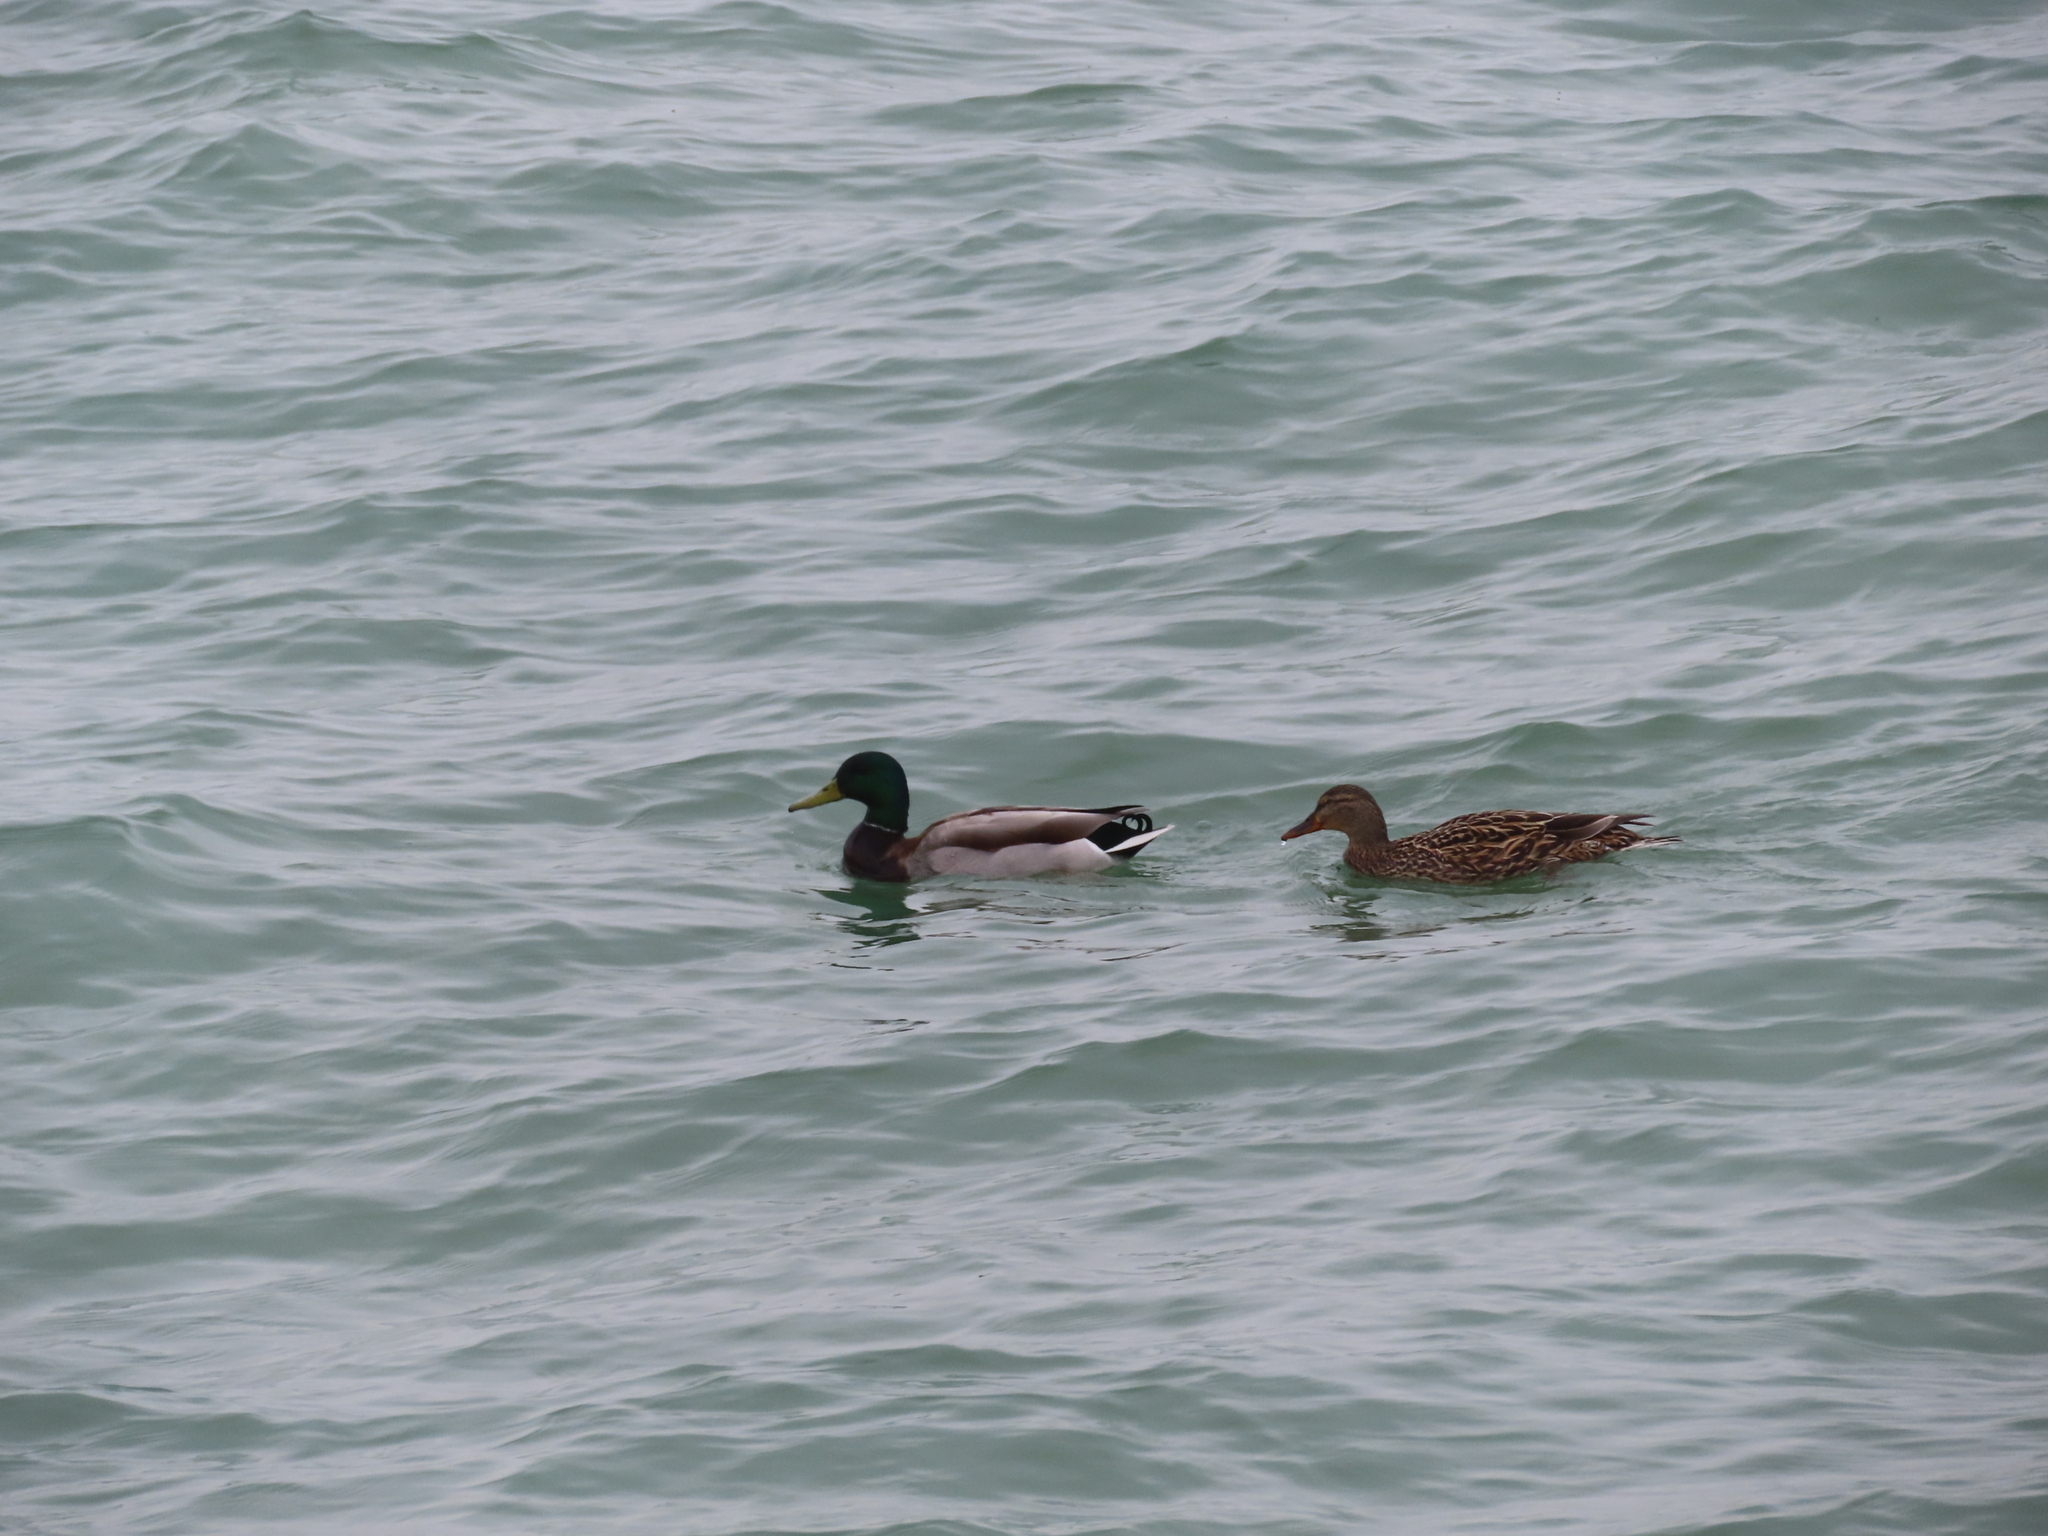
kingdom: Animalia
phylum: Chordata
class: Aves
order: Anseriformes
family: Anatidae
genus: Anas
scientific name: Anas platyrhynchos
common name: Mallard
